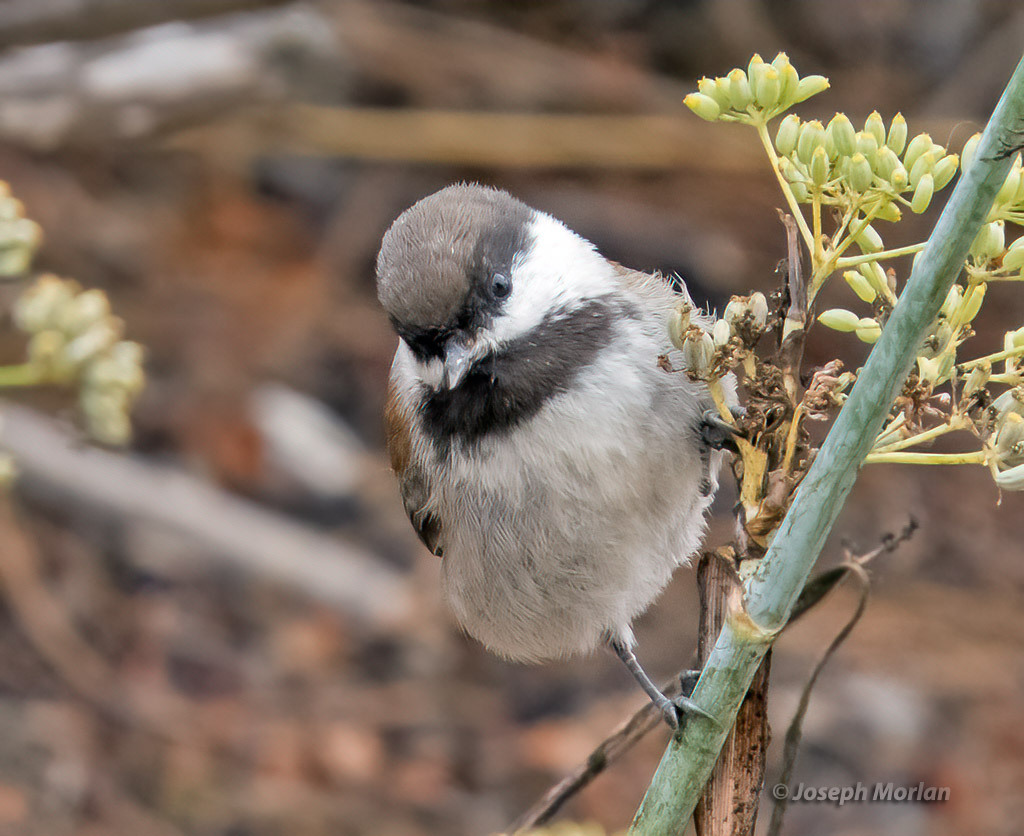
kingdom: Animalia
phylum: Chordata
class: Aves
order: Passeriformes
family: Paridae
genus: Poecile
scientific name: Poecile rufescens
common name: Chestnut-backed chickadee
